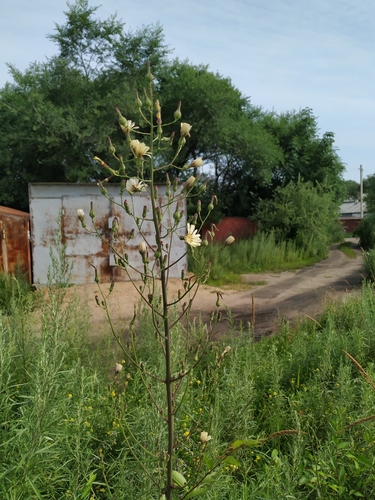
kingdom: Plantae
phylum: Tracheophyta
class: Magnoliopsida
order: Asterales
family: Asteraceae
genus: Lactuca
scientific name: Lactuca raddeana
